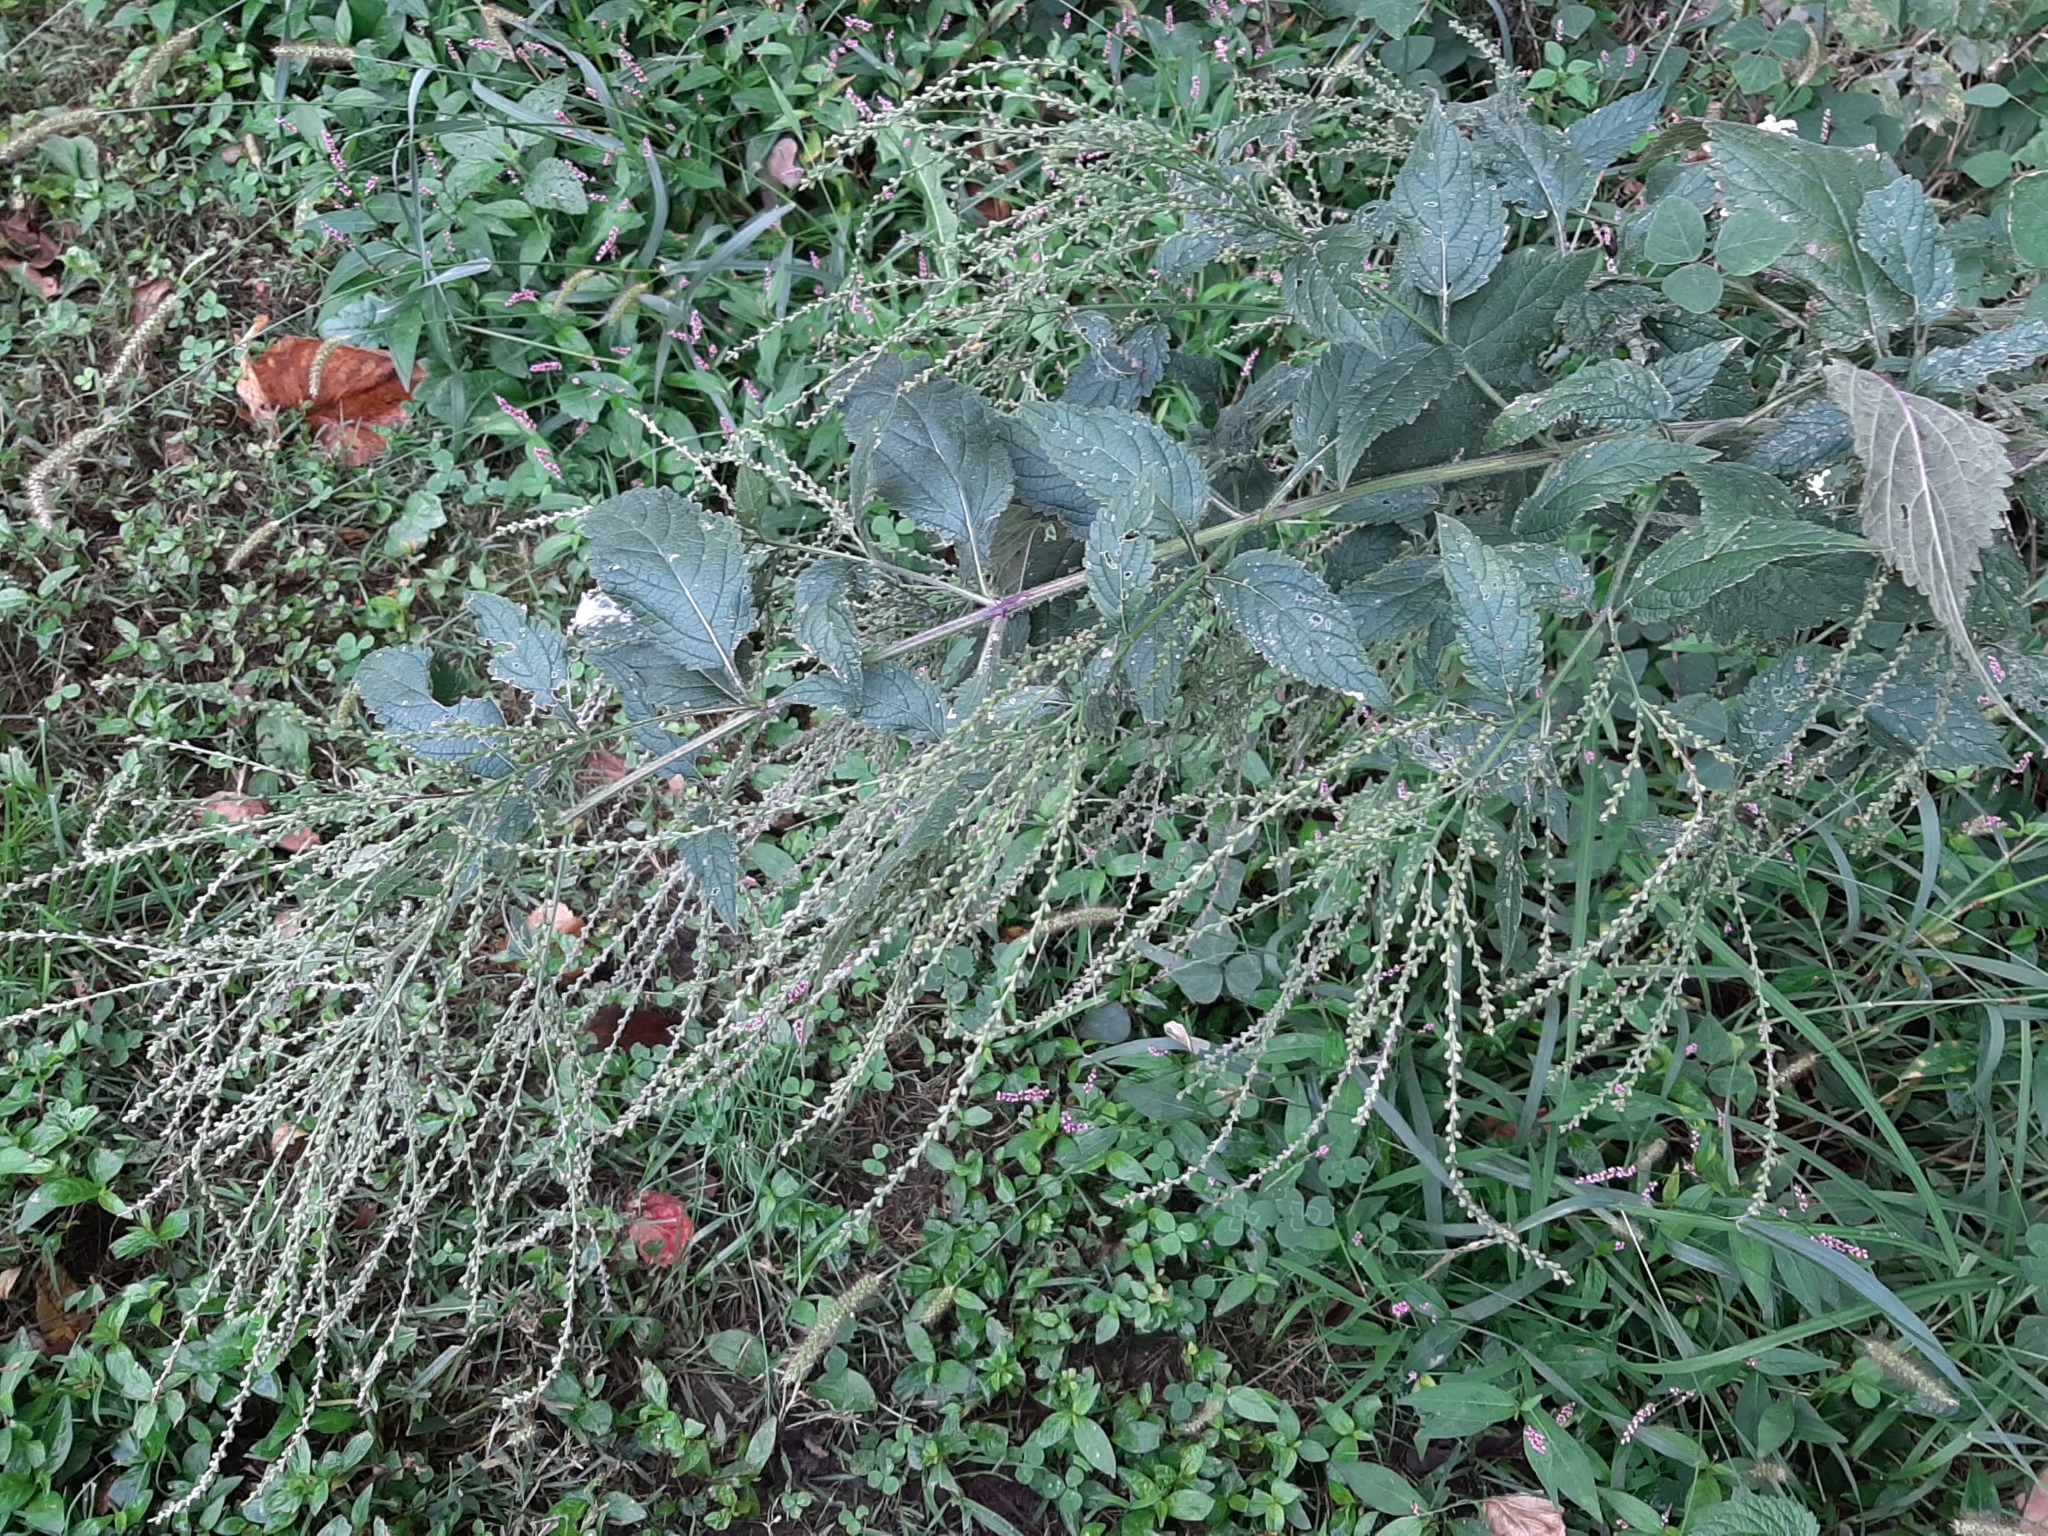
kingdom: Plantae
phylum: Tracheophyta
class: Magnoliopsida
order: Lamiales
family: Verbenaceae
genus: Verbena
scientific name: Verbena urticifolia
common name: Nettle-leaved vervain
